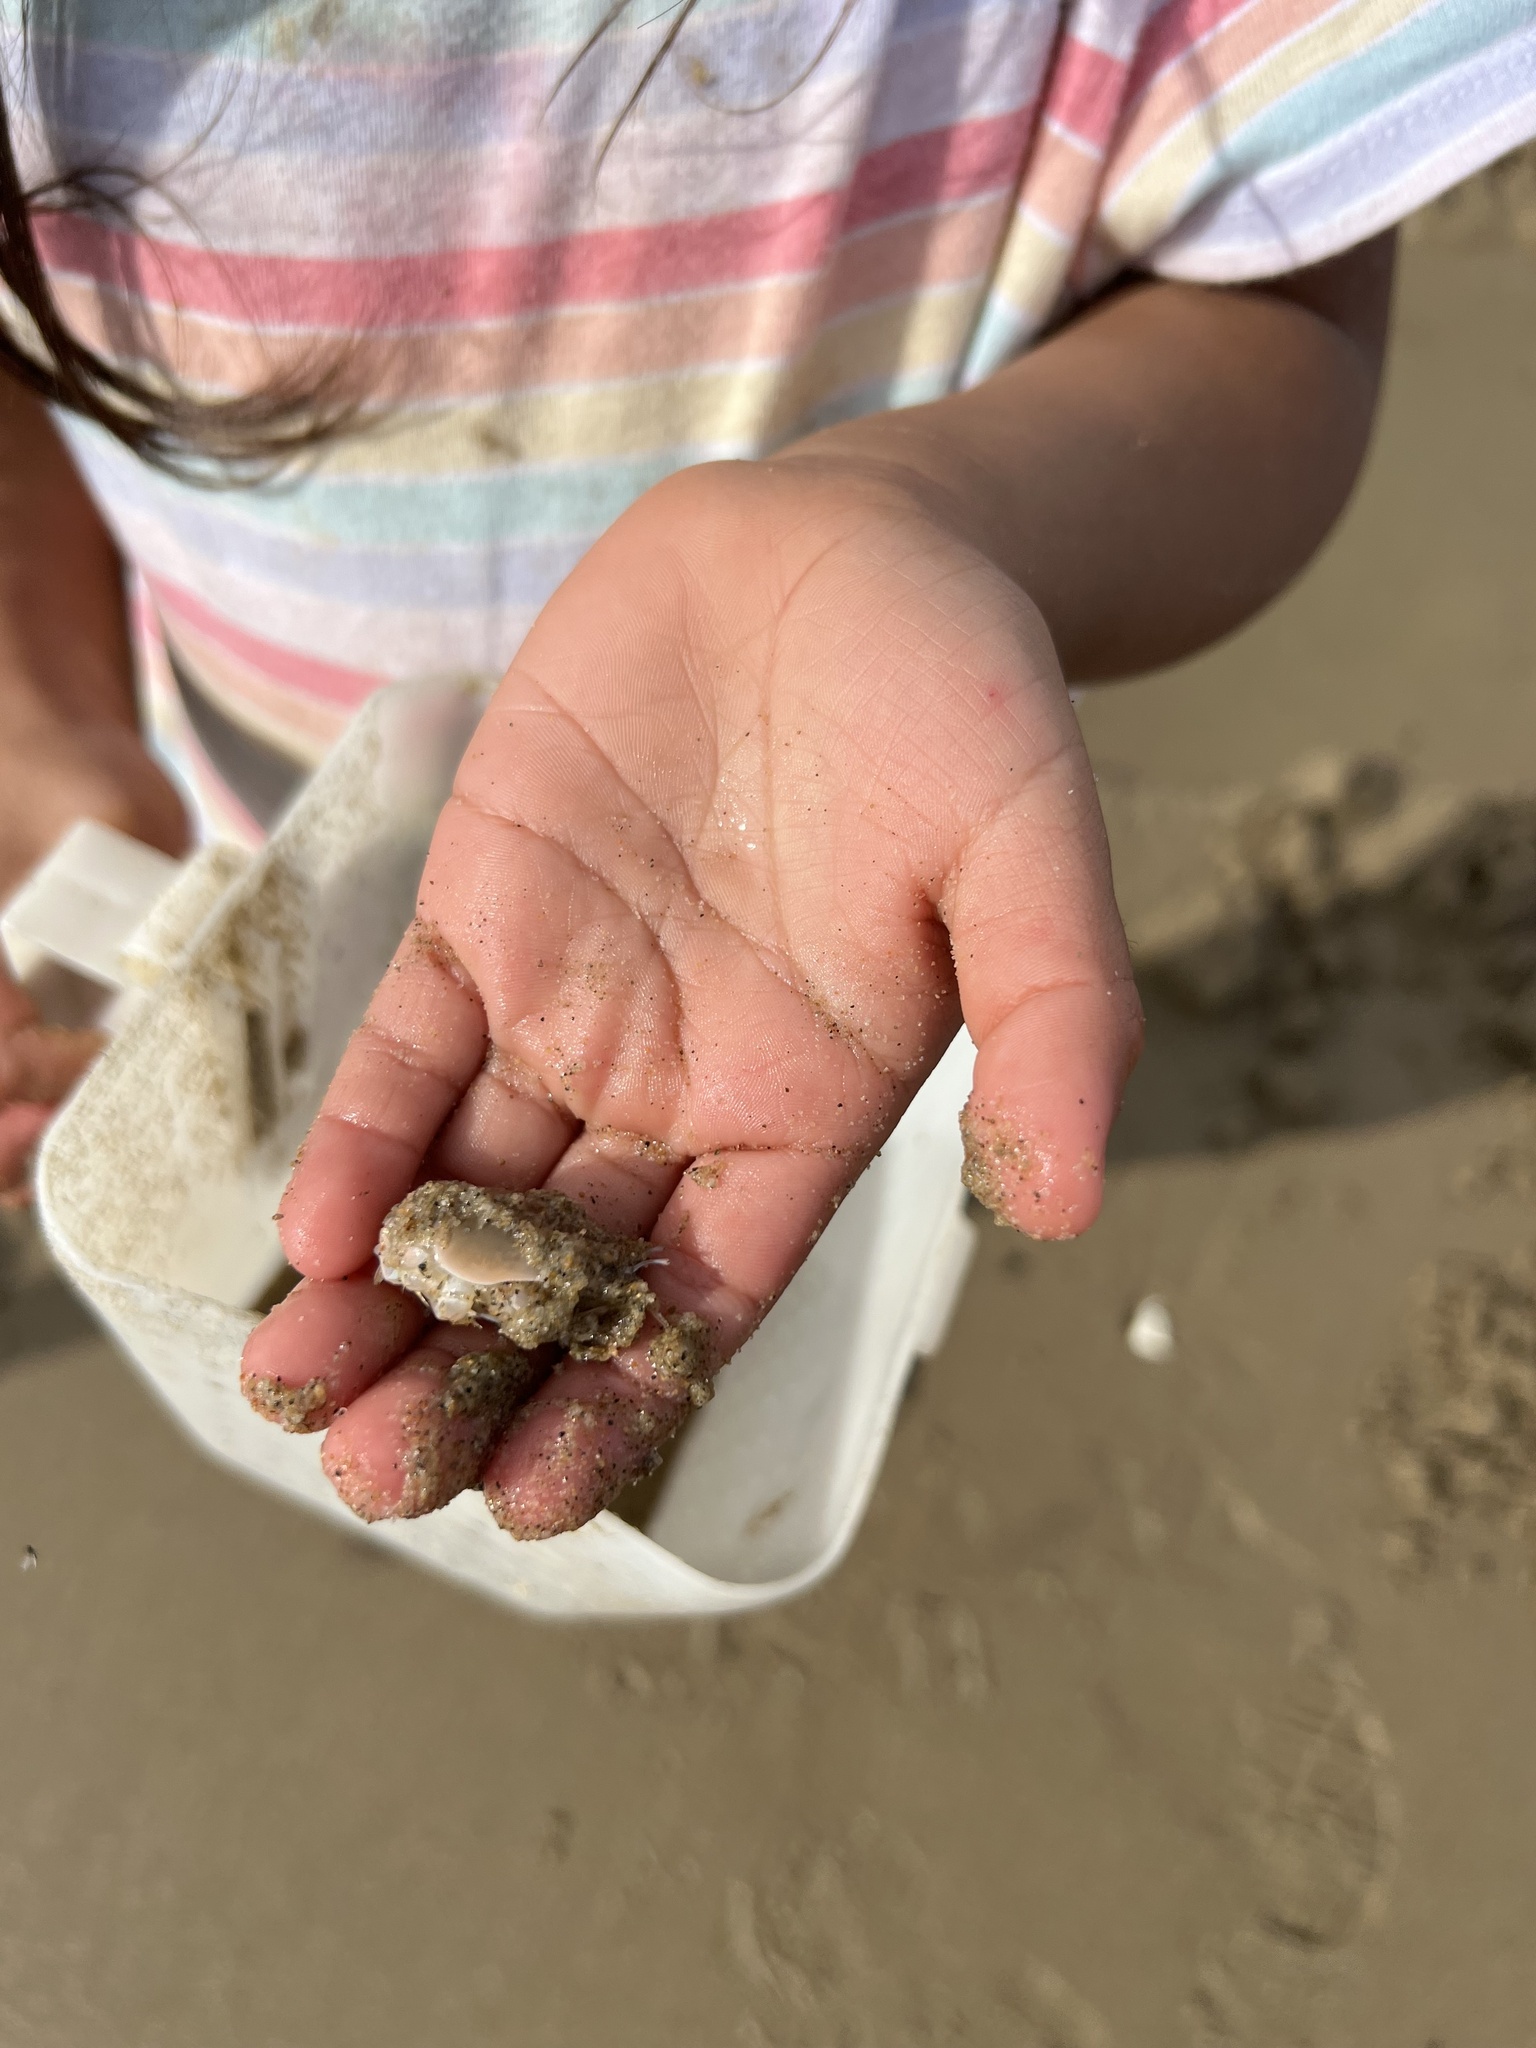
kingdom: Animalia
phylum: Arthropoda
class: Malacostraca
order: Decapoda
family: Hippidae
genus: Emerita
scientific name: Emerita analoga
